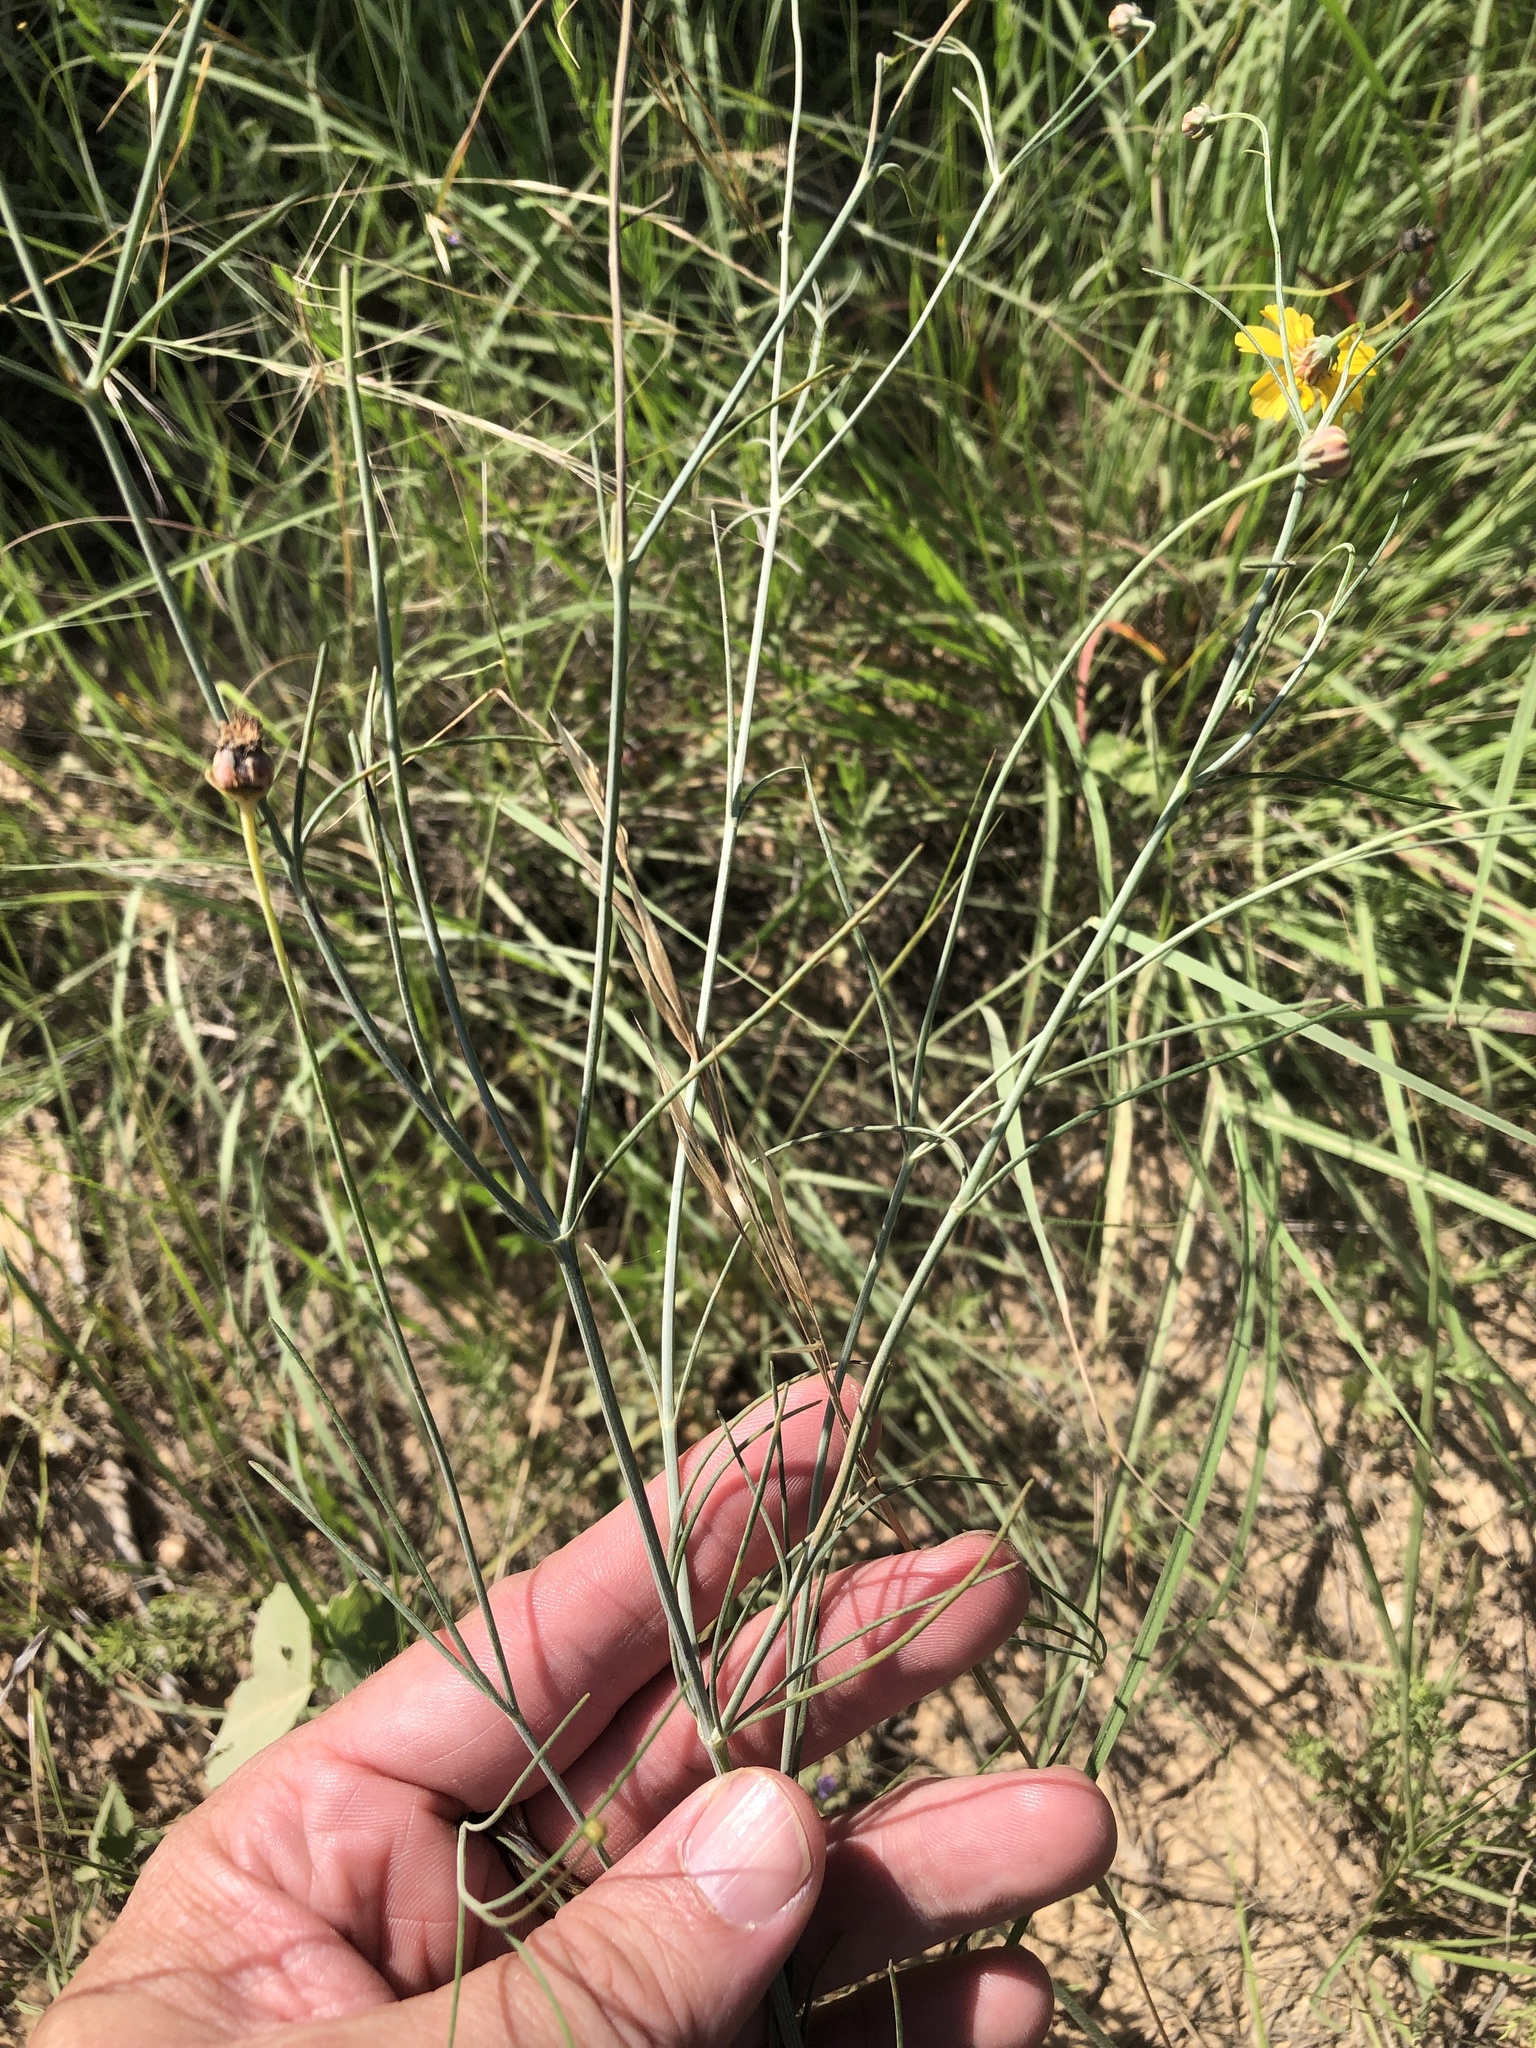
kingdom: Plantae
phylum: Tracheophyta
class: Magnoliopsida
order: Asterales
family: Asteraceae
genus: Thelesperma
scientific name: Thelesperma simplicifolium
